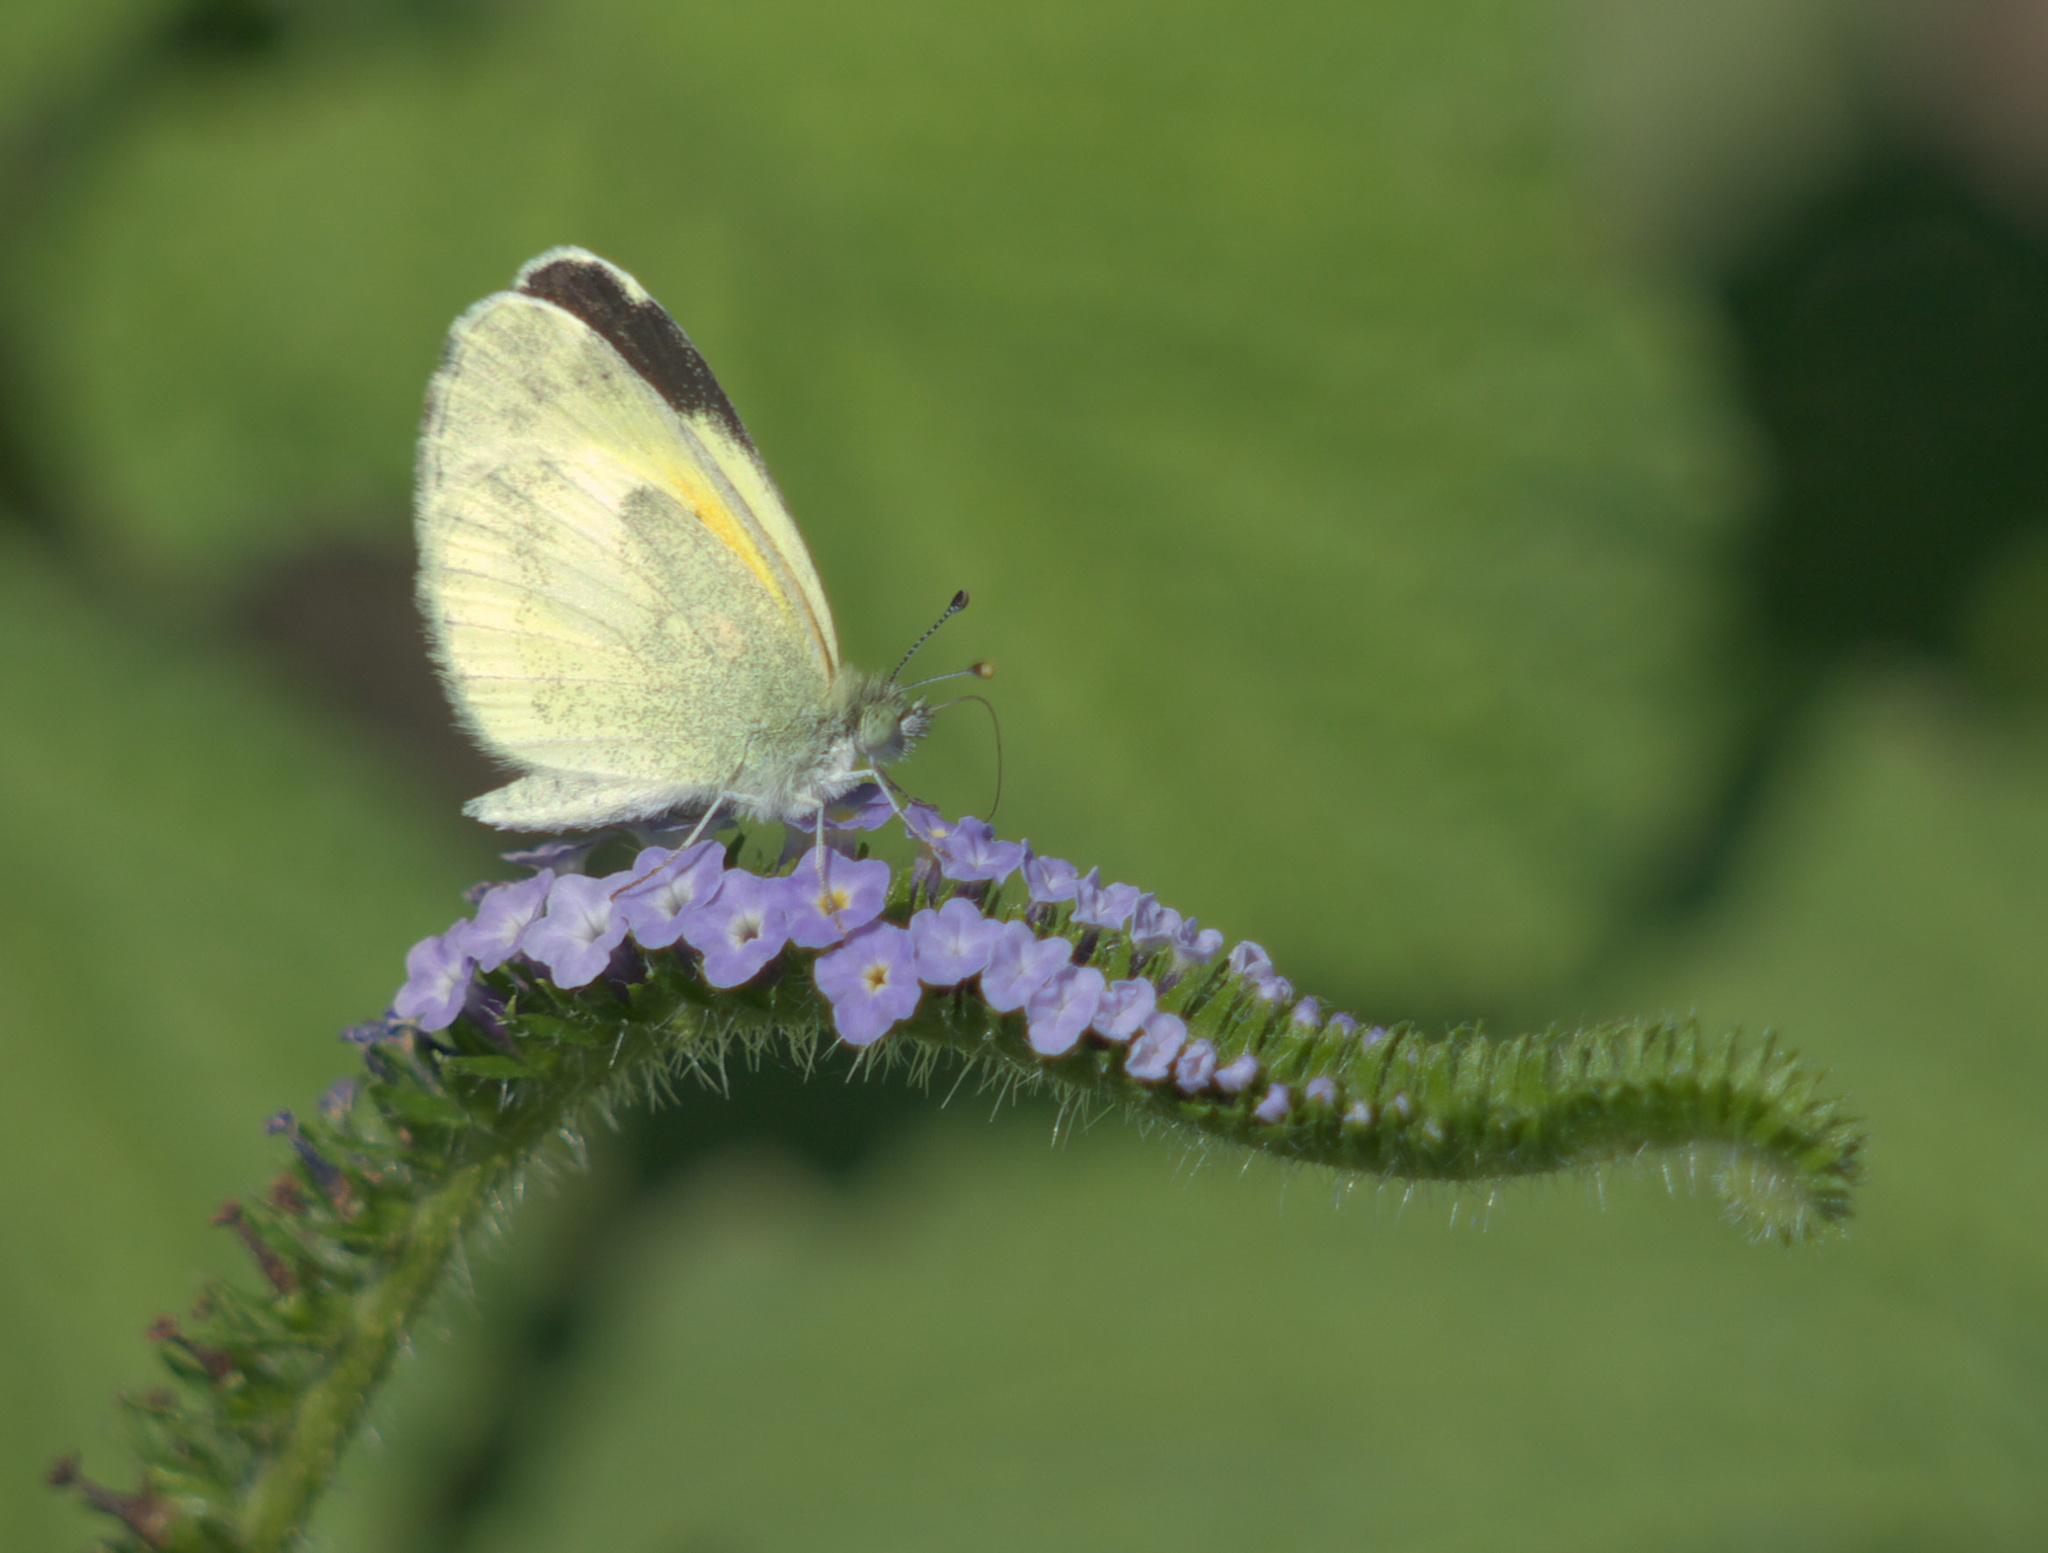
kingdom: Animalia
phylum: Arthropoda
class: Insecta
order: Lepidoptera
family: Pieridae
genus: Nathalis
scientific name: Nathalis iole
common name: Dainty sulphur
